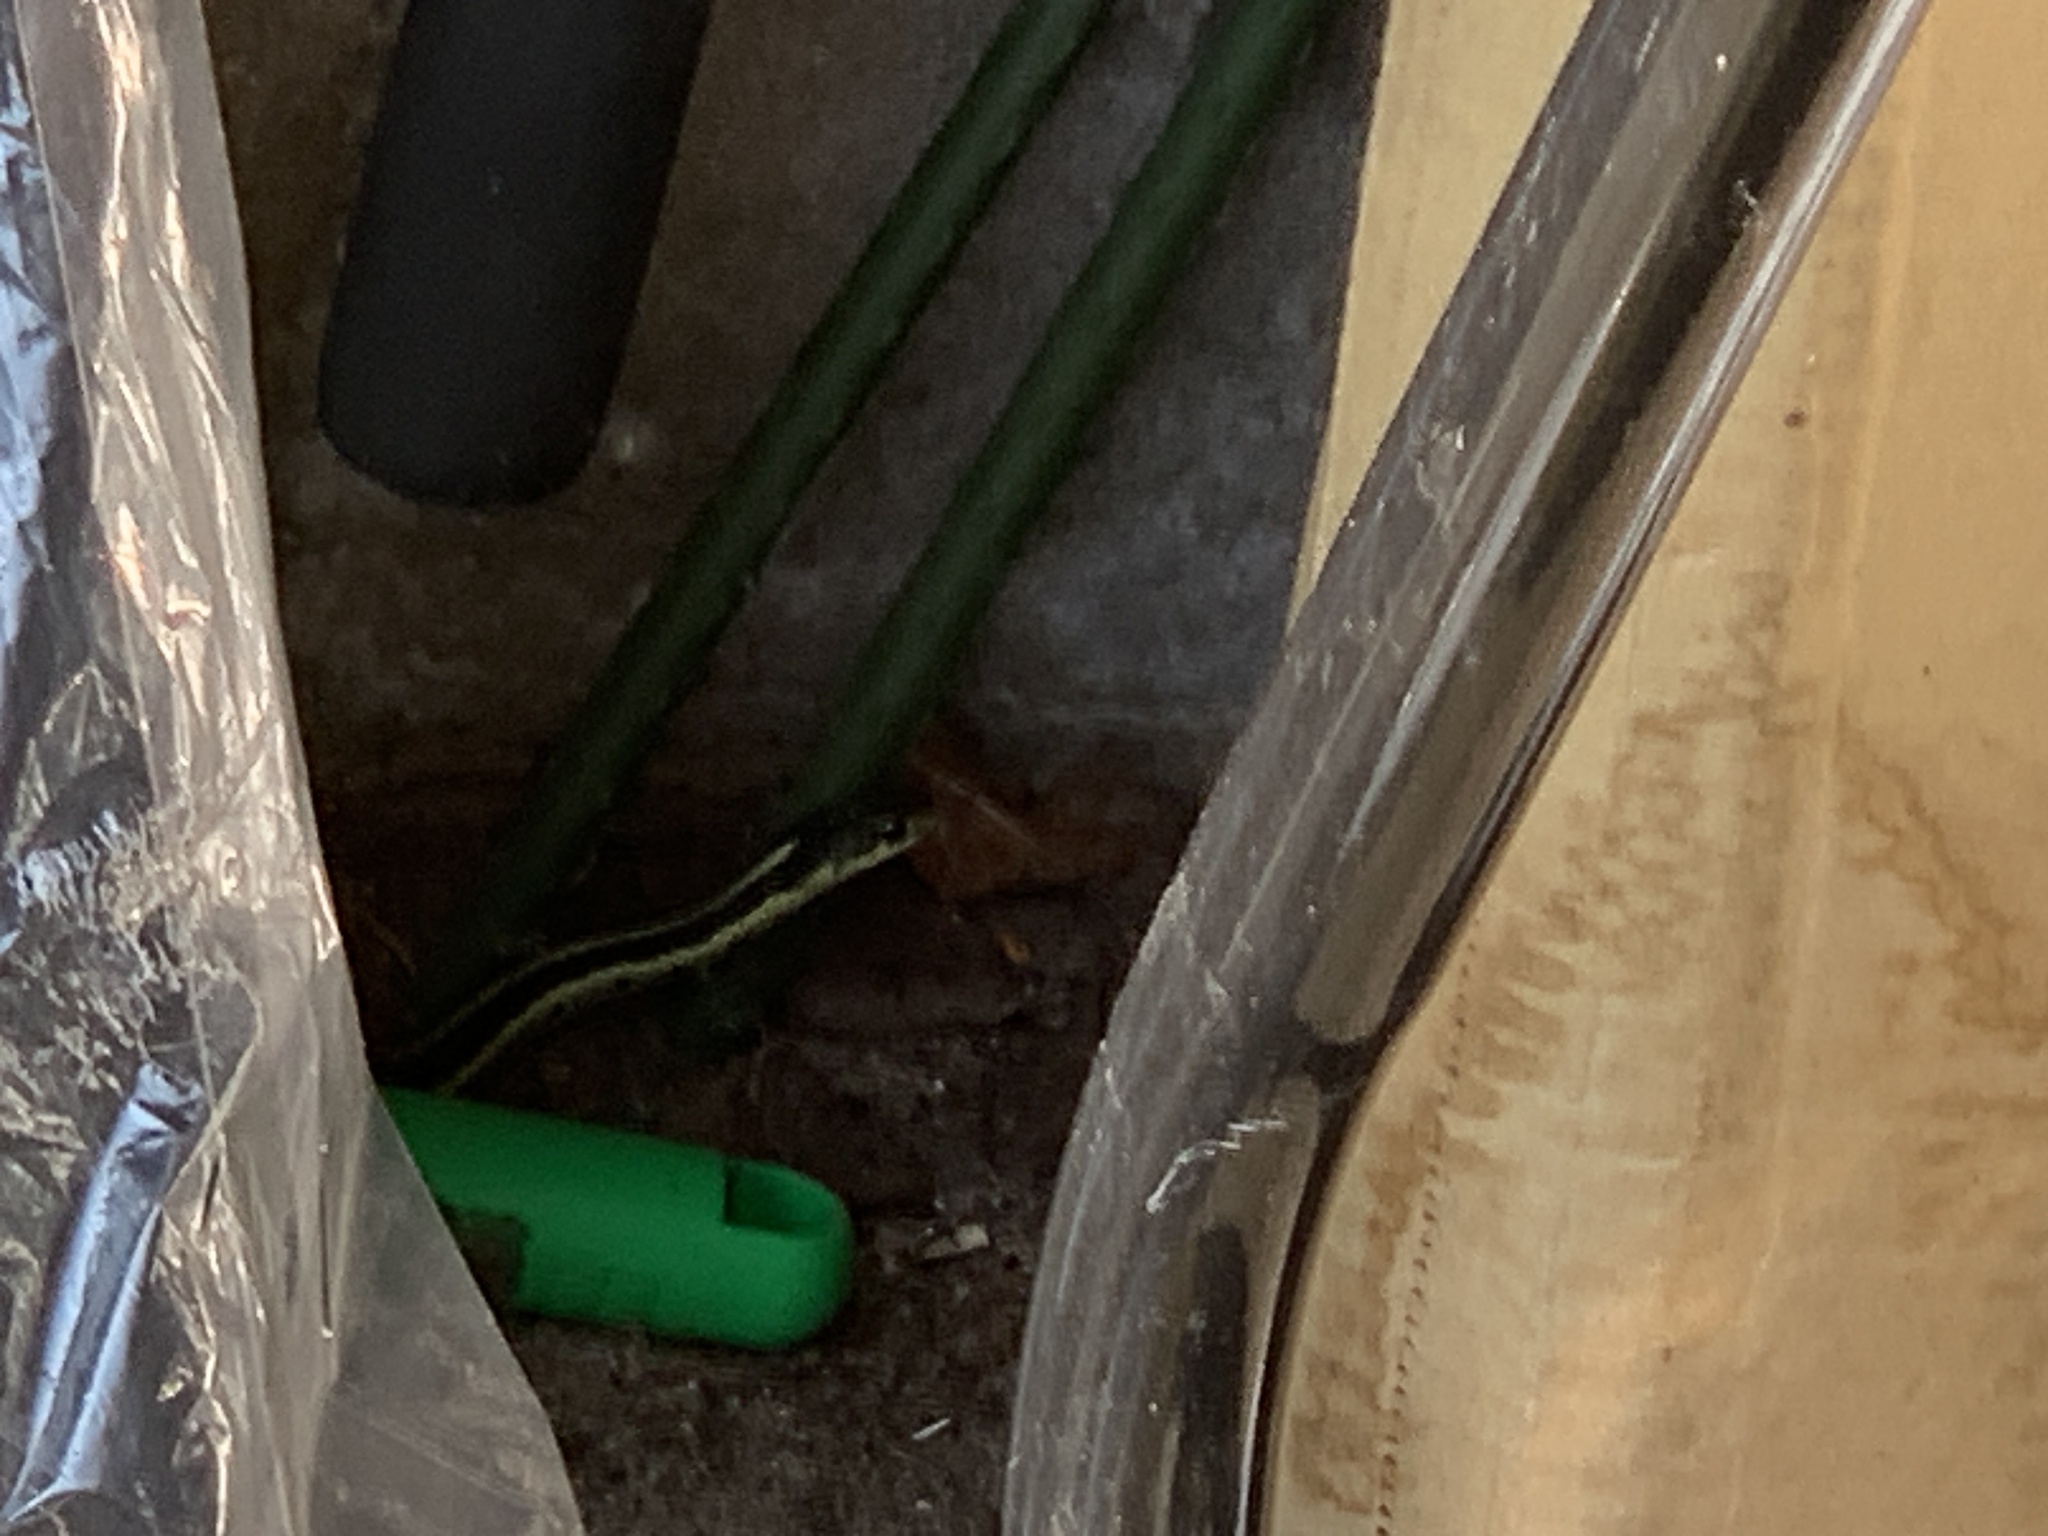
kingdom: Animalia
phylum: Chordata
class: Squamata
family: Colubridae
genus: Thamnophis
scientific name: Thamnophis sirtalis
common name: Common garter snake
